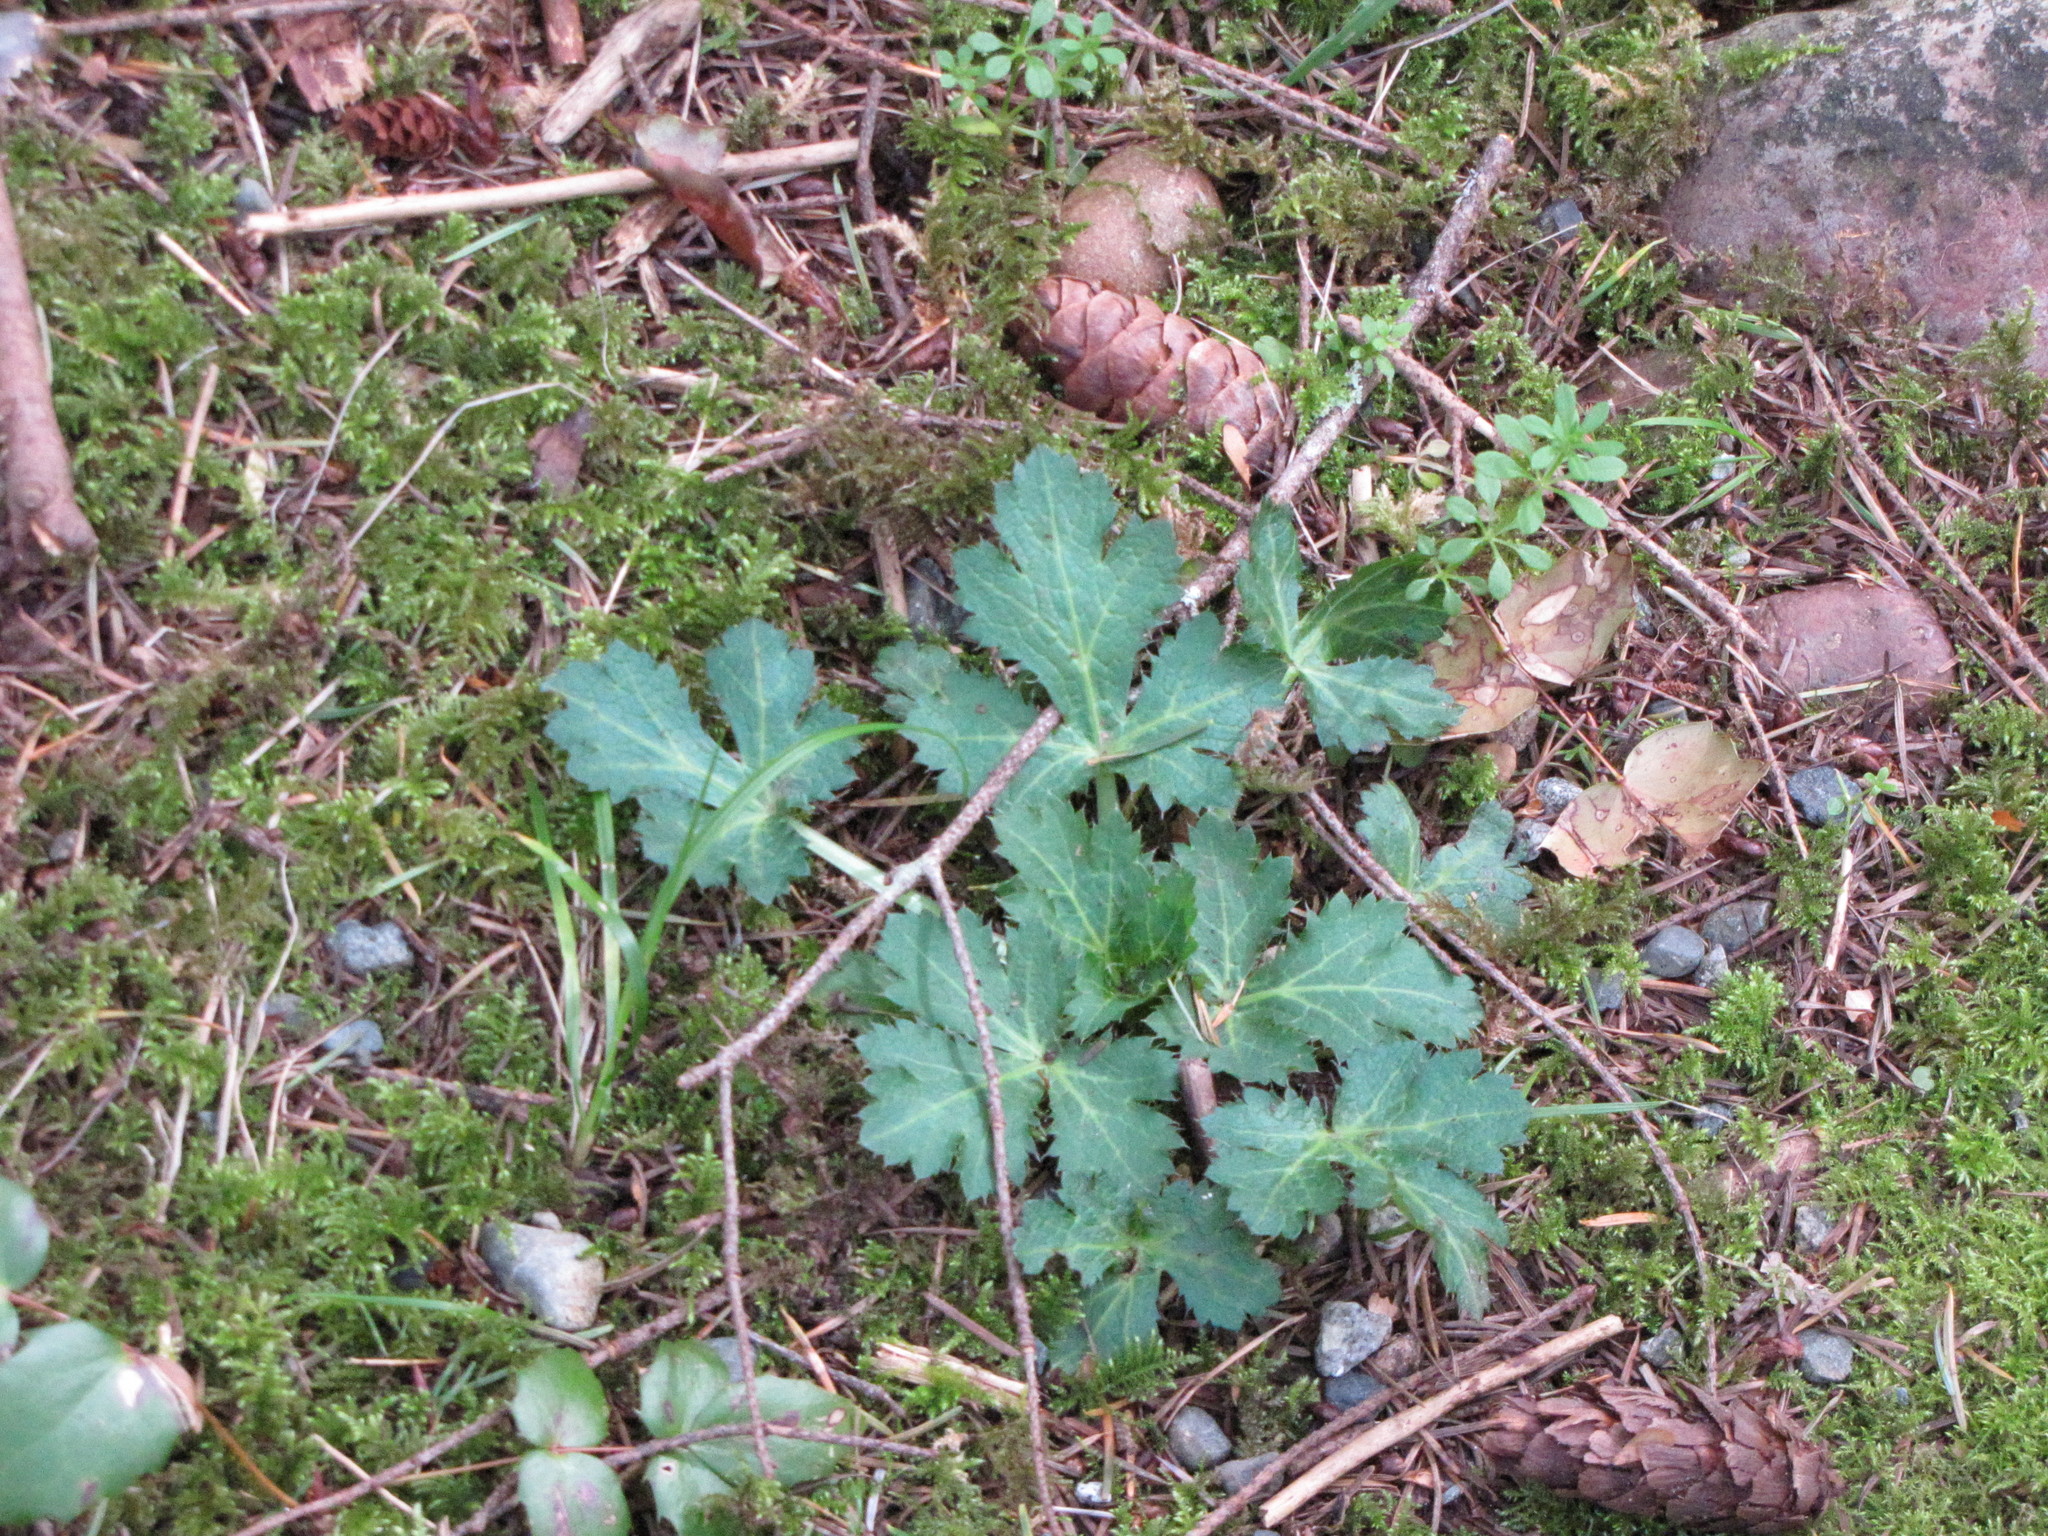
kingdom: Plantae
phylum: Tracheophyta
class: Magnoliopsida
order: Apiales
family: Apiaceae
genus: Sanicula
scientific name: Sanicula crassicaulis
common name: Western snakeroot
